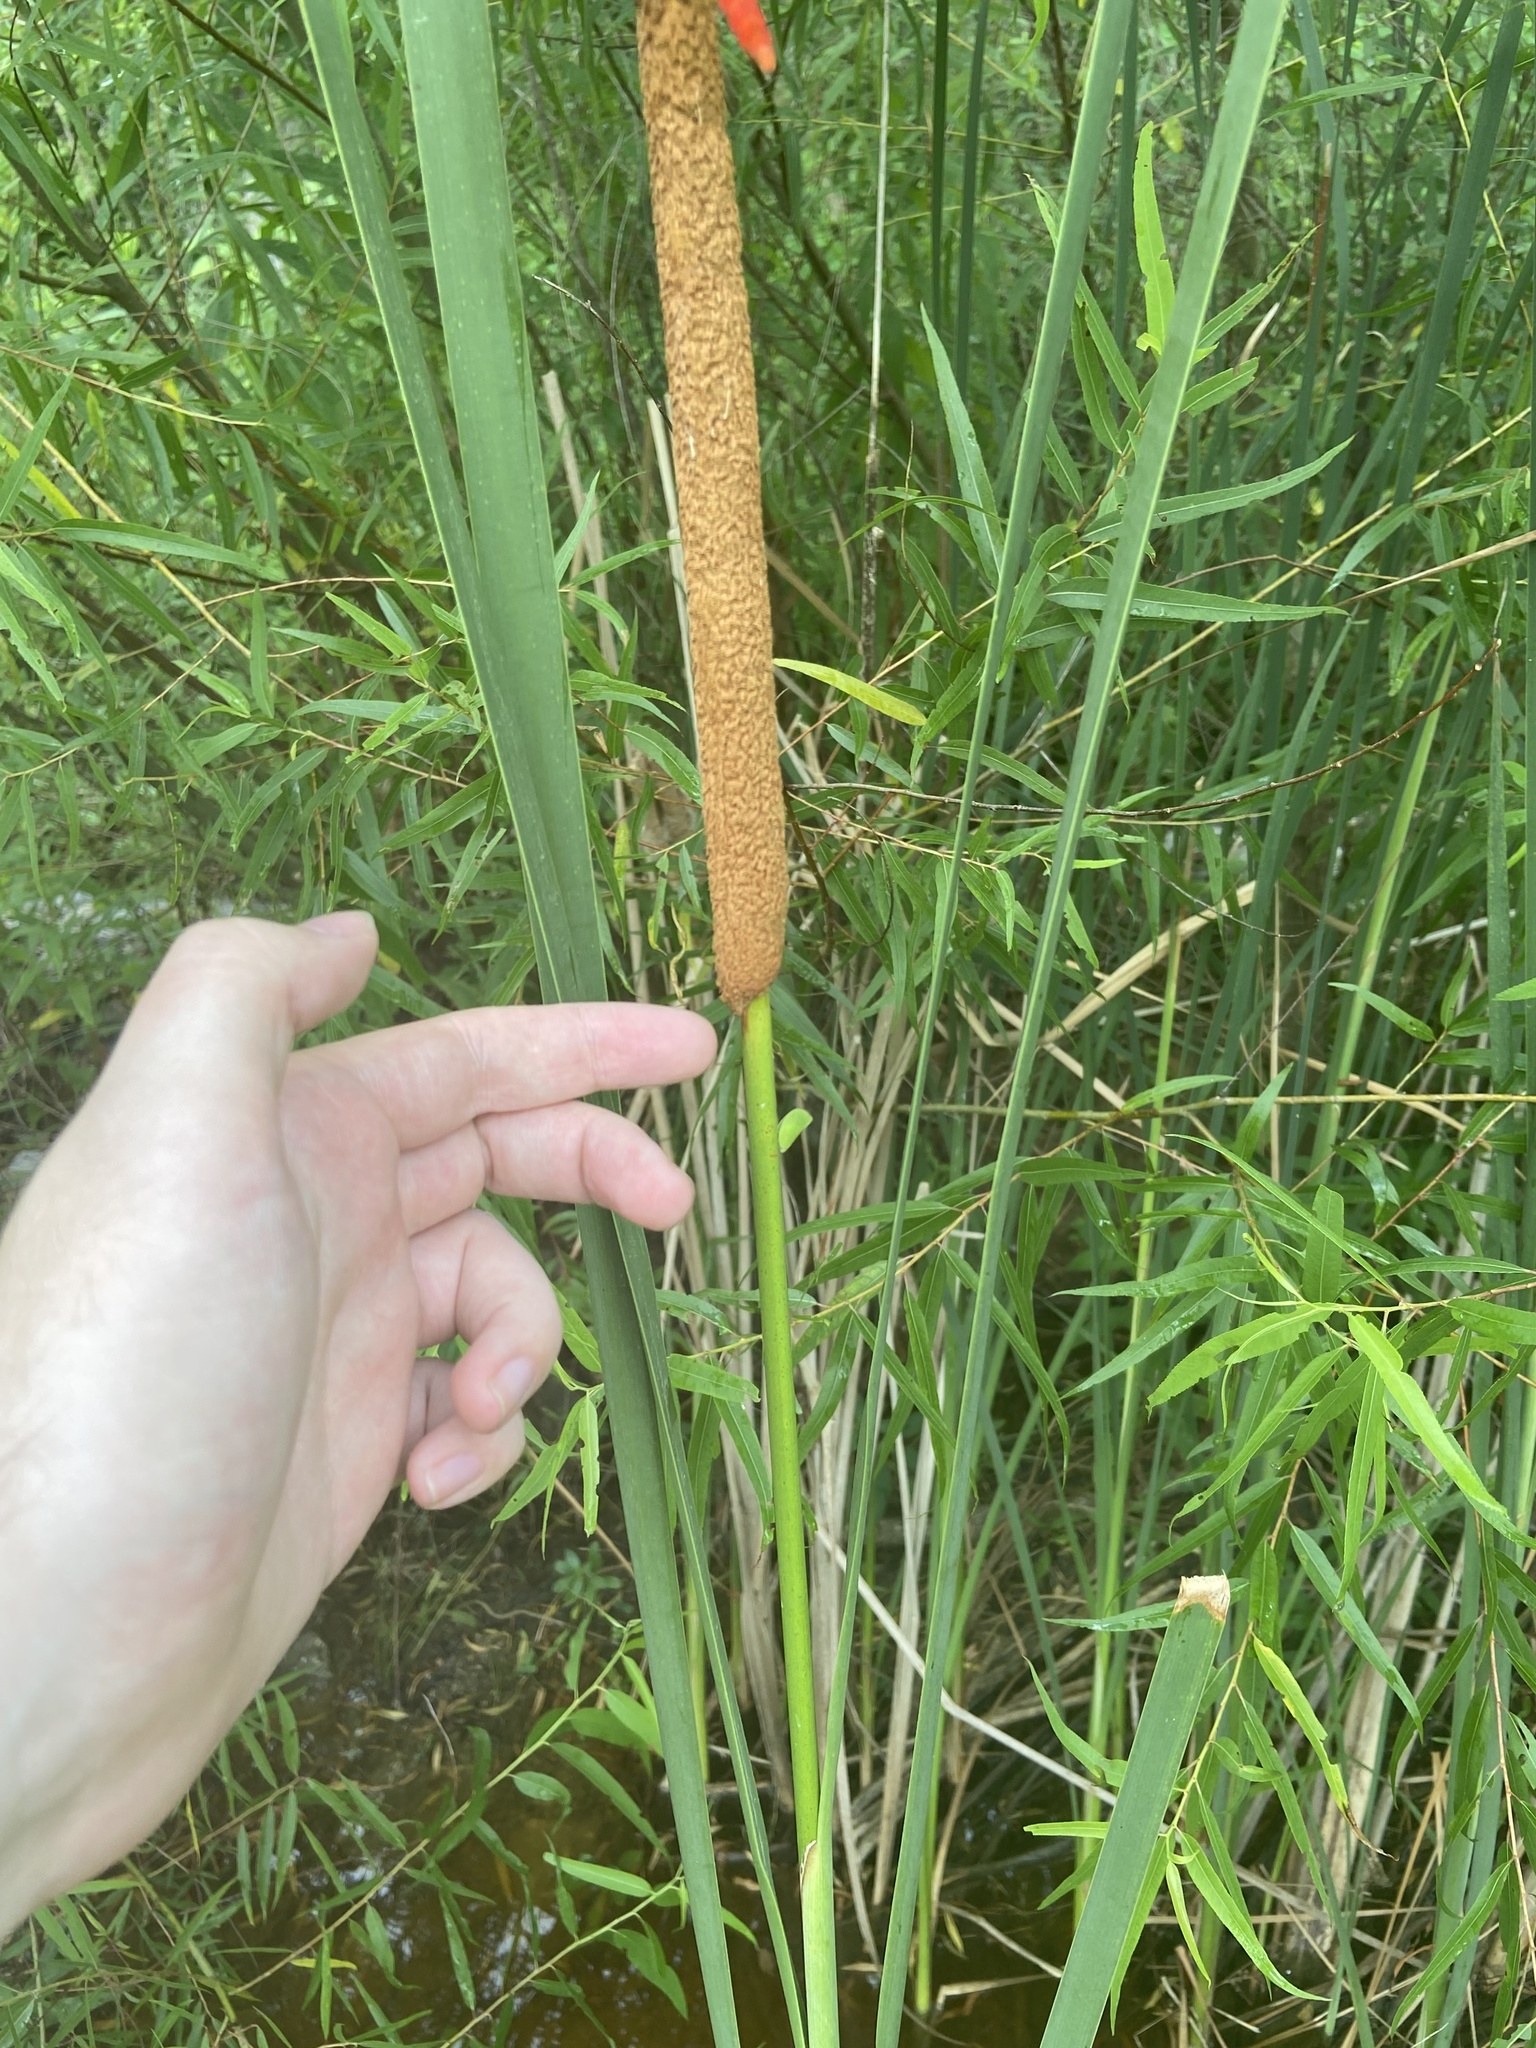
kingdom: Plantae
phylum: Tracheophyta
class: Liliopsida
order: Poales
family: Typhaceae
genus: Typha
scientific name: Typha domingensis
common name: Southern cattail
